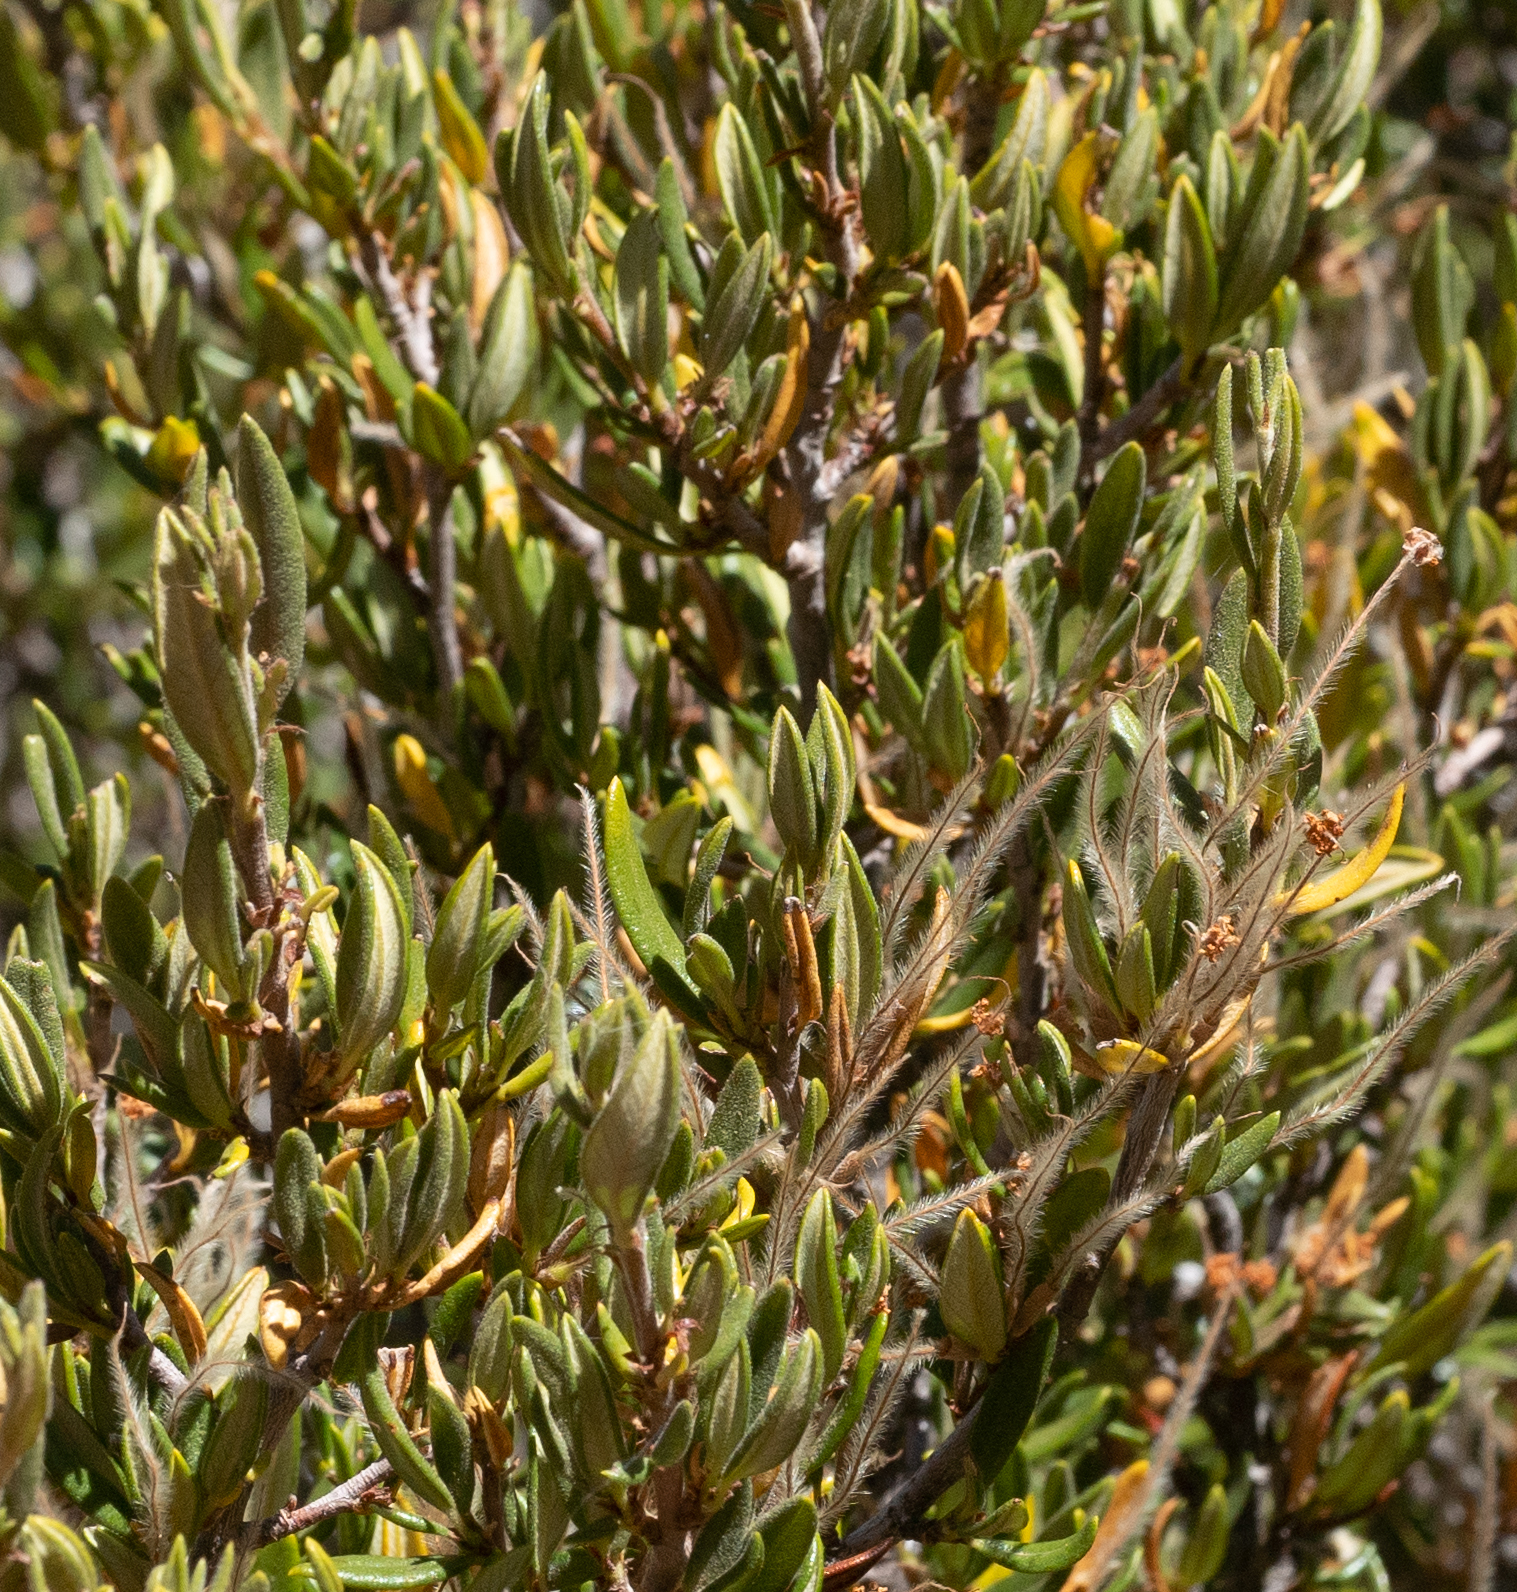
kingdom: Plantae
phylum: Tracheophyta
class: Magnoliopsida
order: Rosales
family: Rosaceae
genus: Cercocarpus
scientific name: Cercocarpus ledifolius
